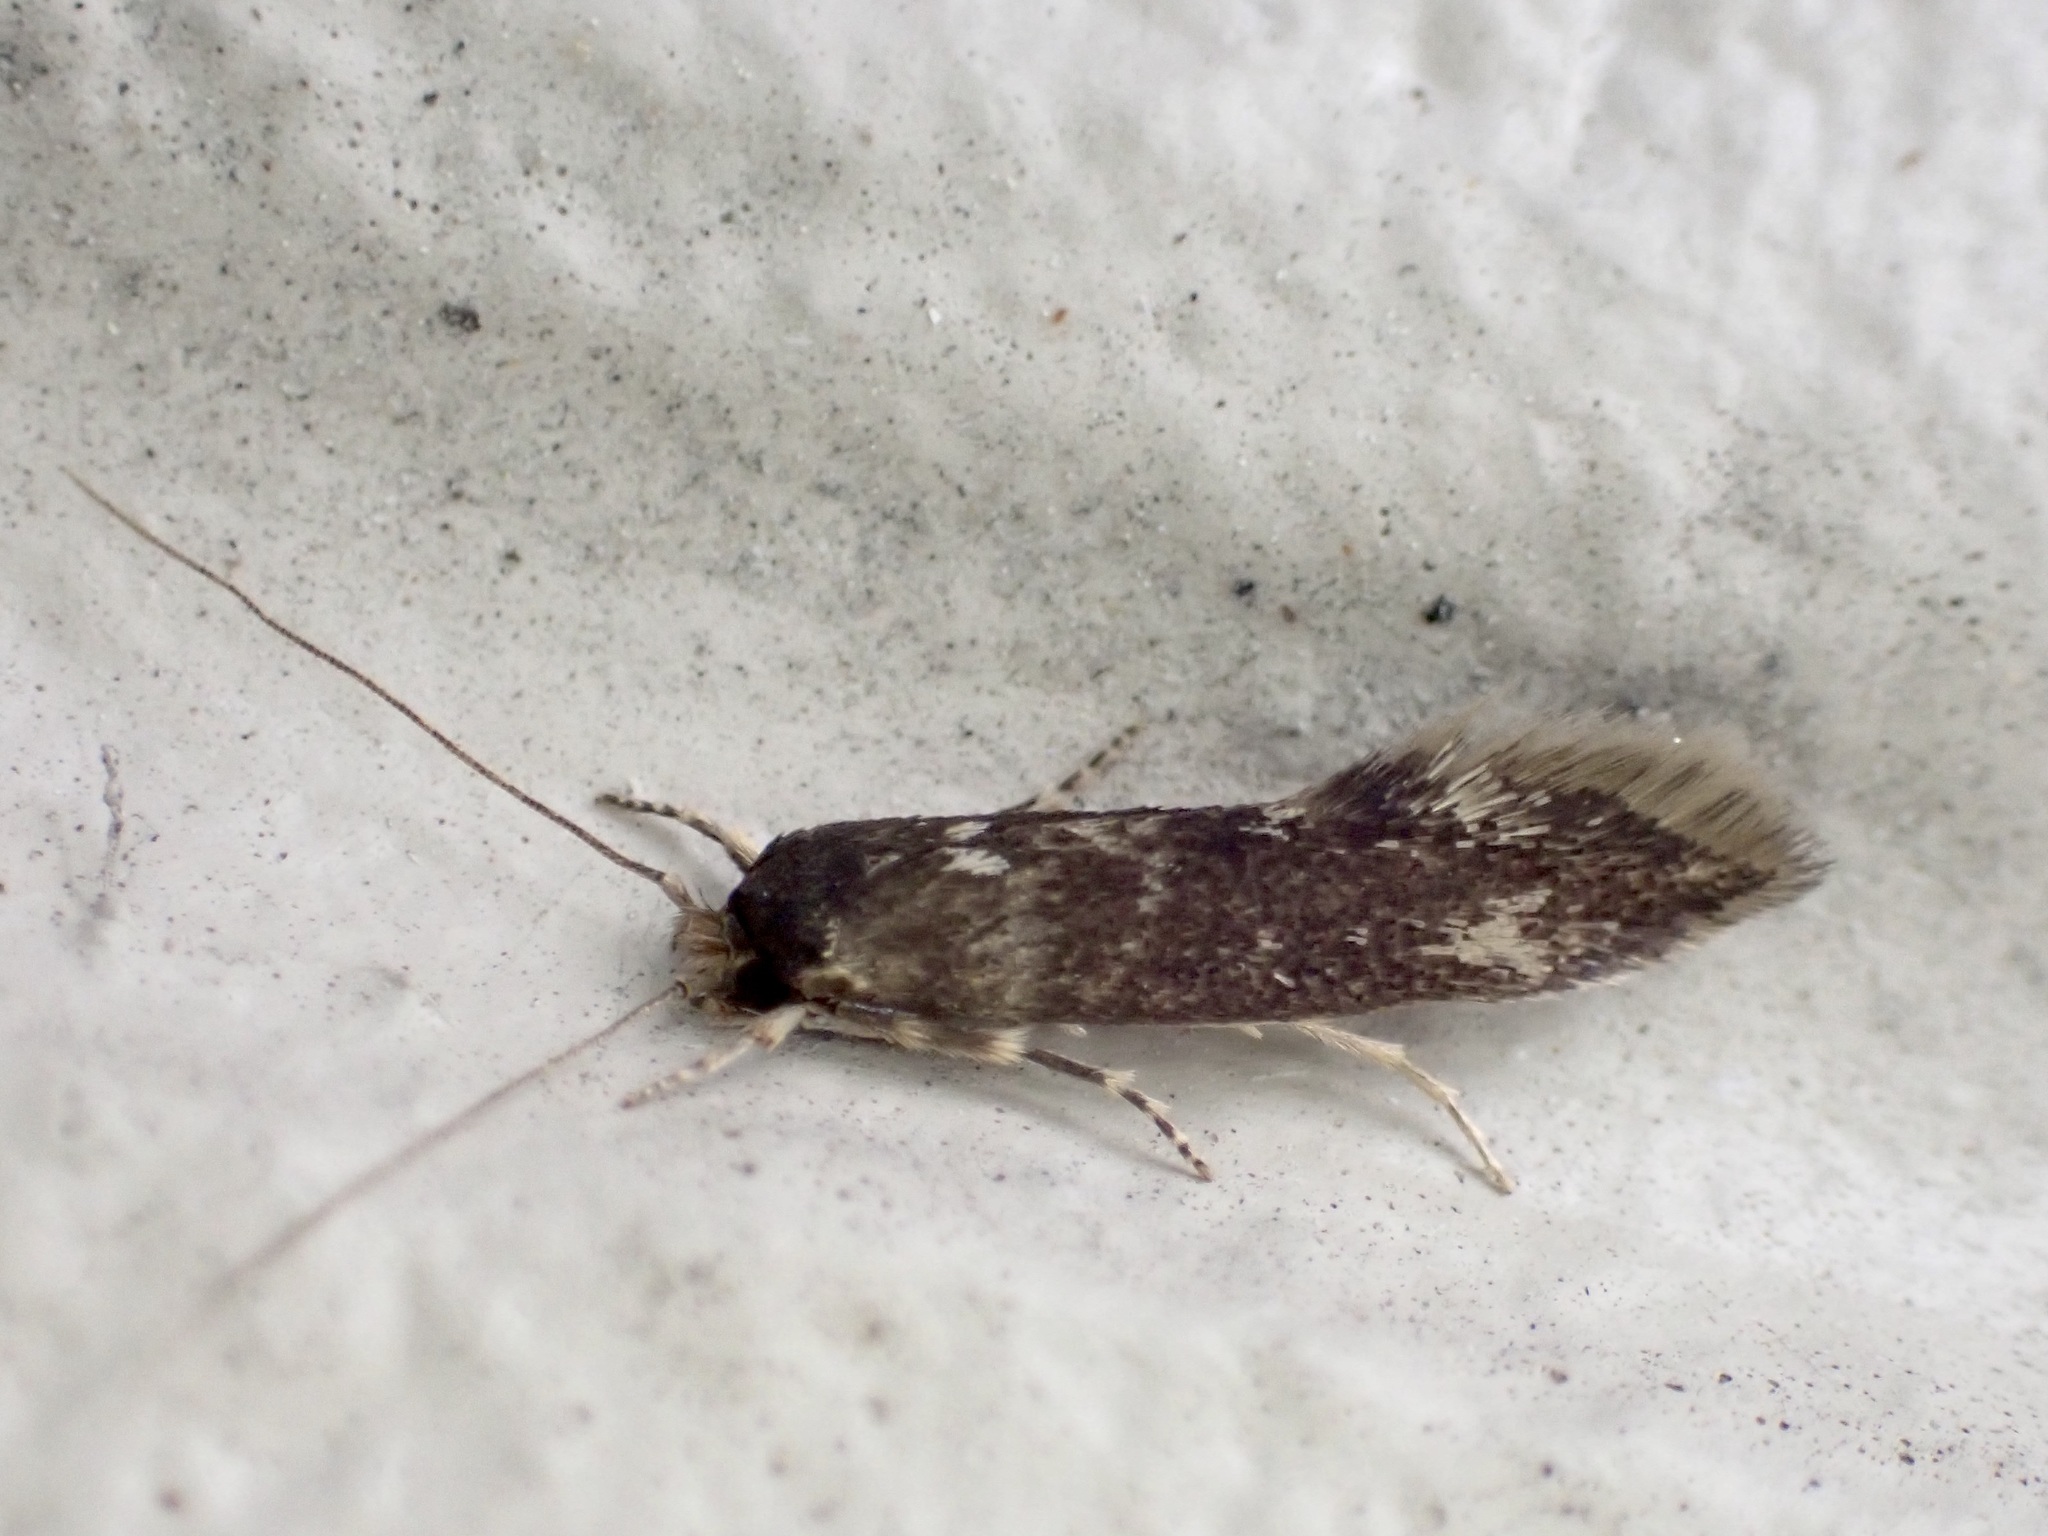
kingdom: Animalia
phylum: Arthropoda
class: Insecta
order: Lepidoptera
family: Tineidae
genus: Opogona
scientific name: Opogona omoscopa
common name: Moth
